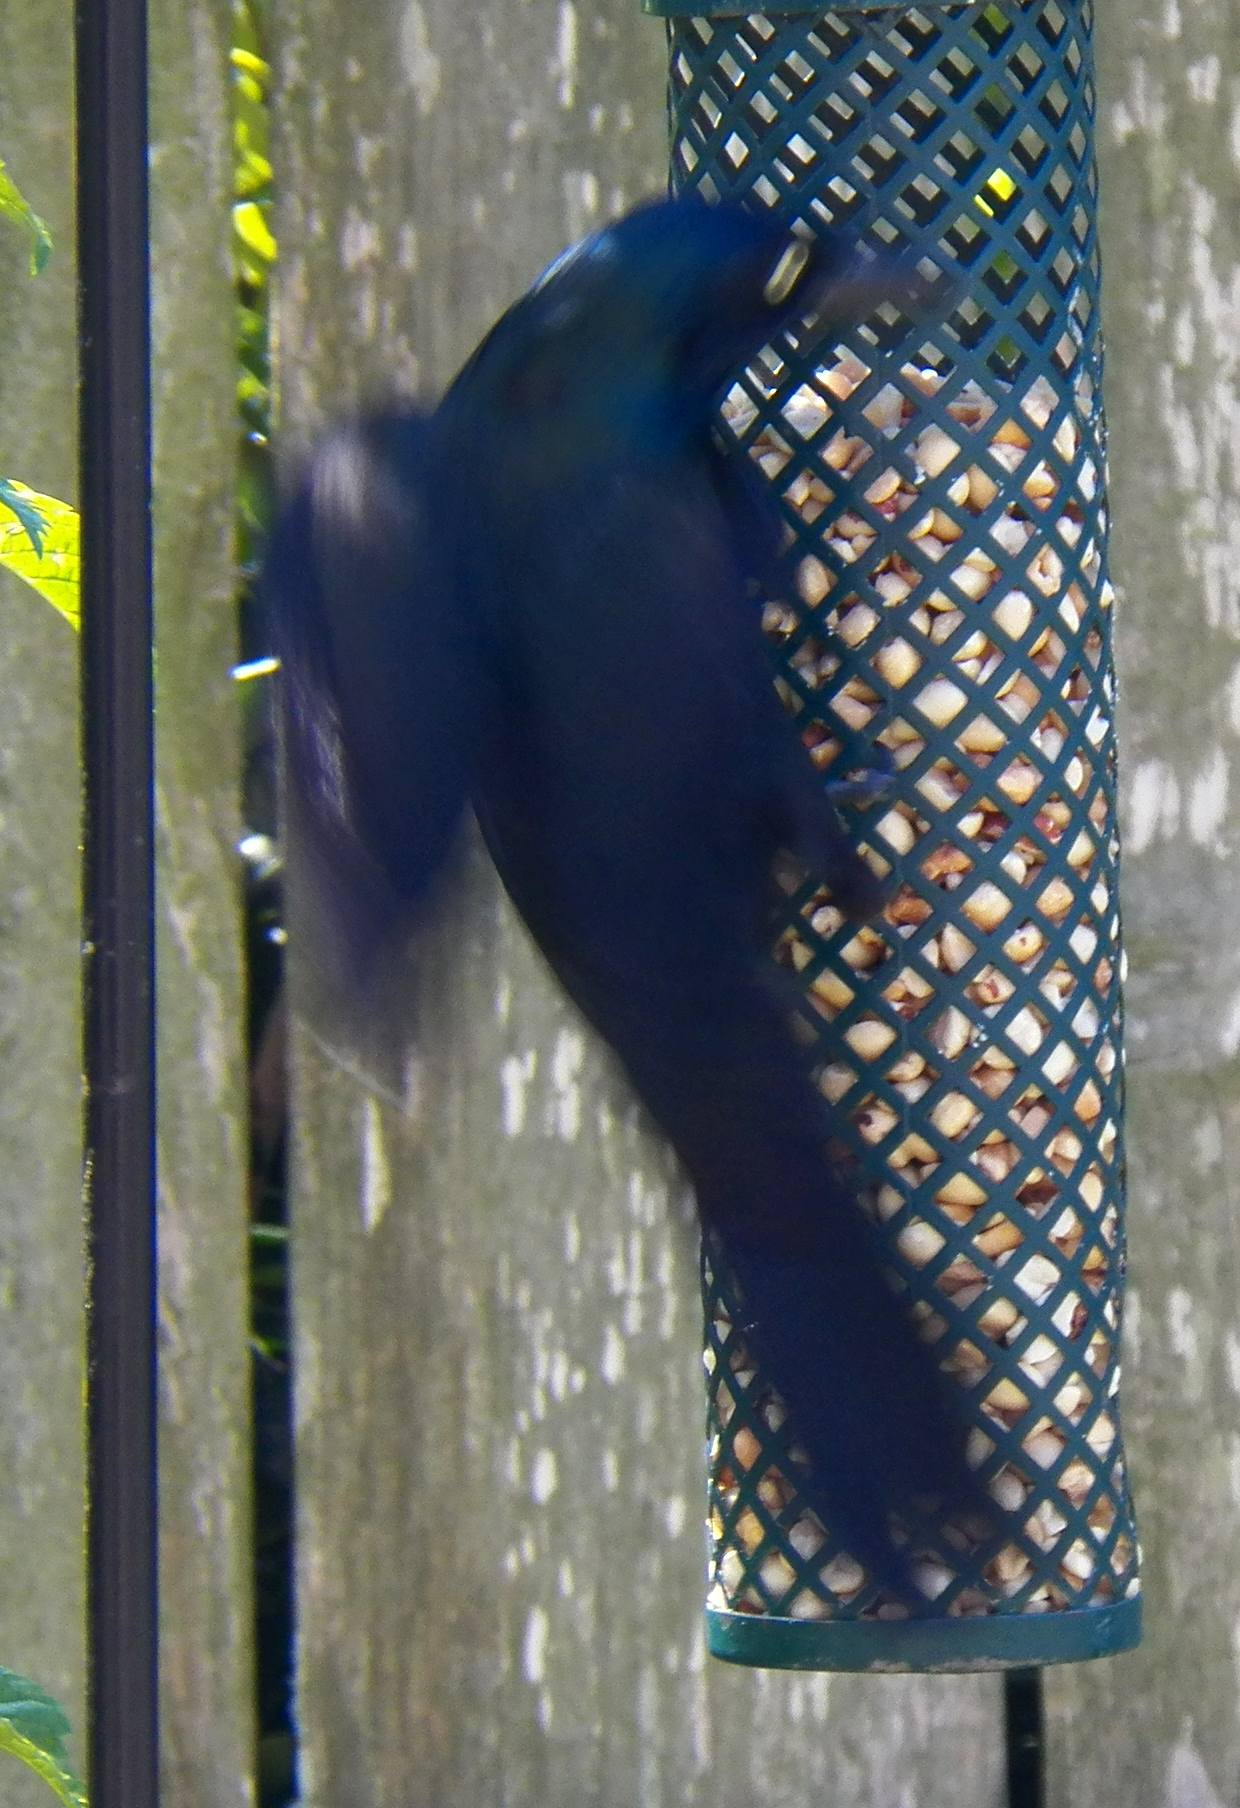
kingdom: Animalia
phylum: Chordata
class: Aves
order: Passeriformes
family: Icteridae
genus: Quiscalus
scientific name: Quiscalus quiscula
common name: Common grackle
